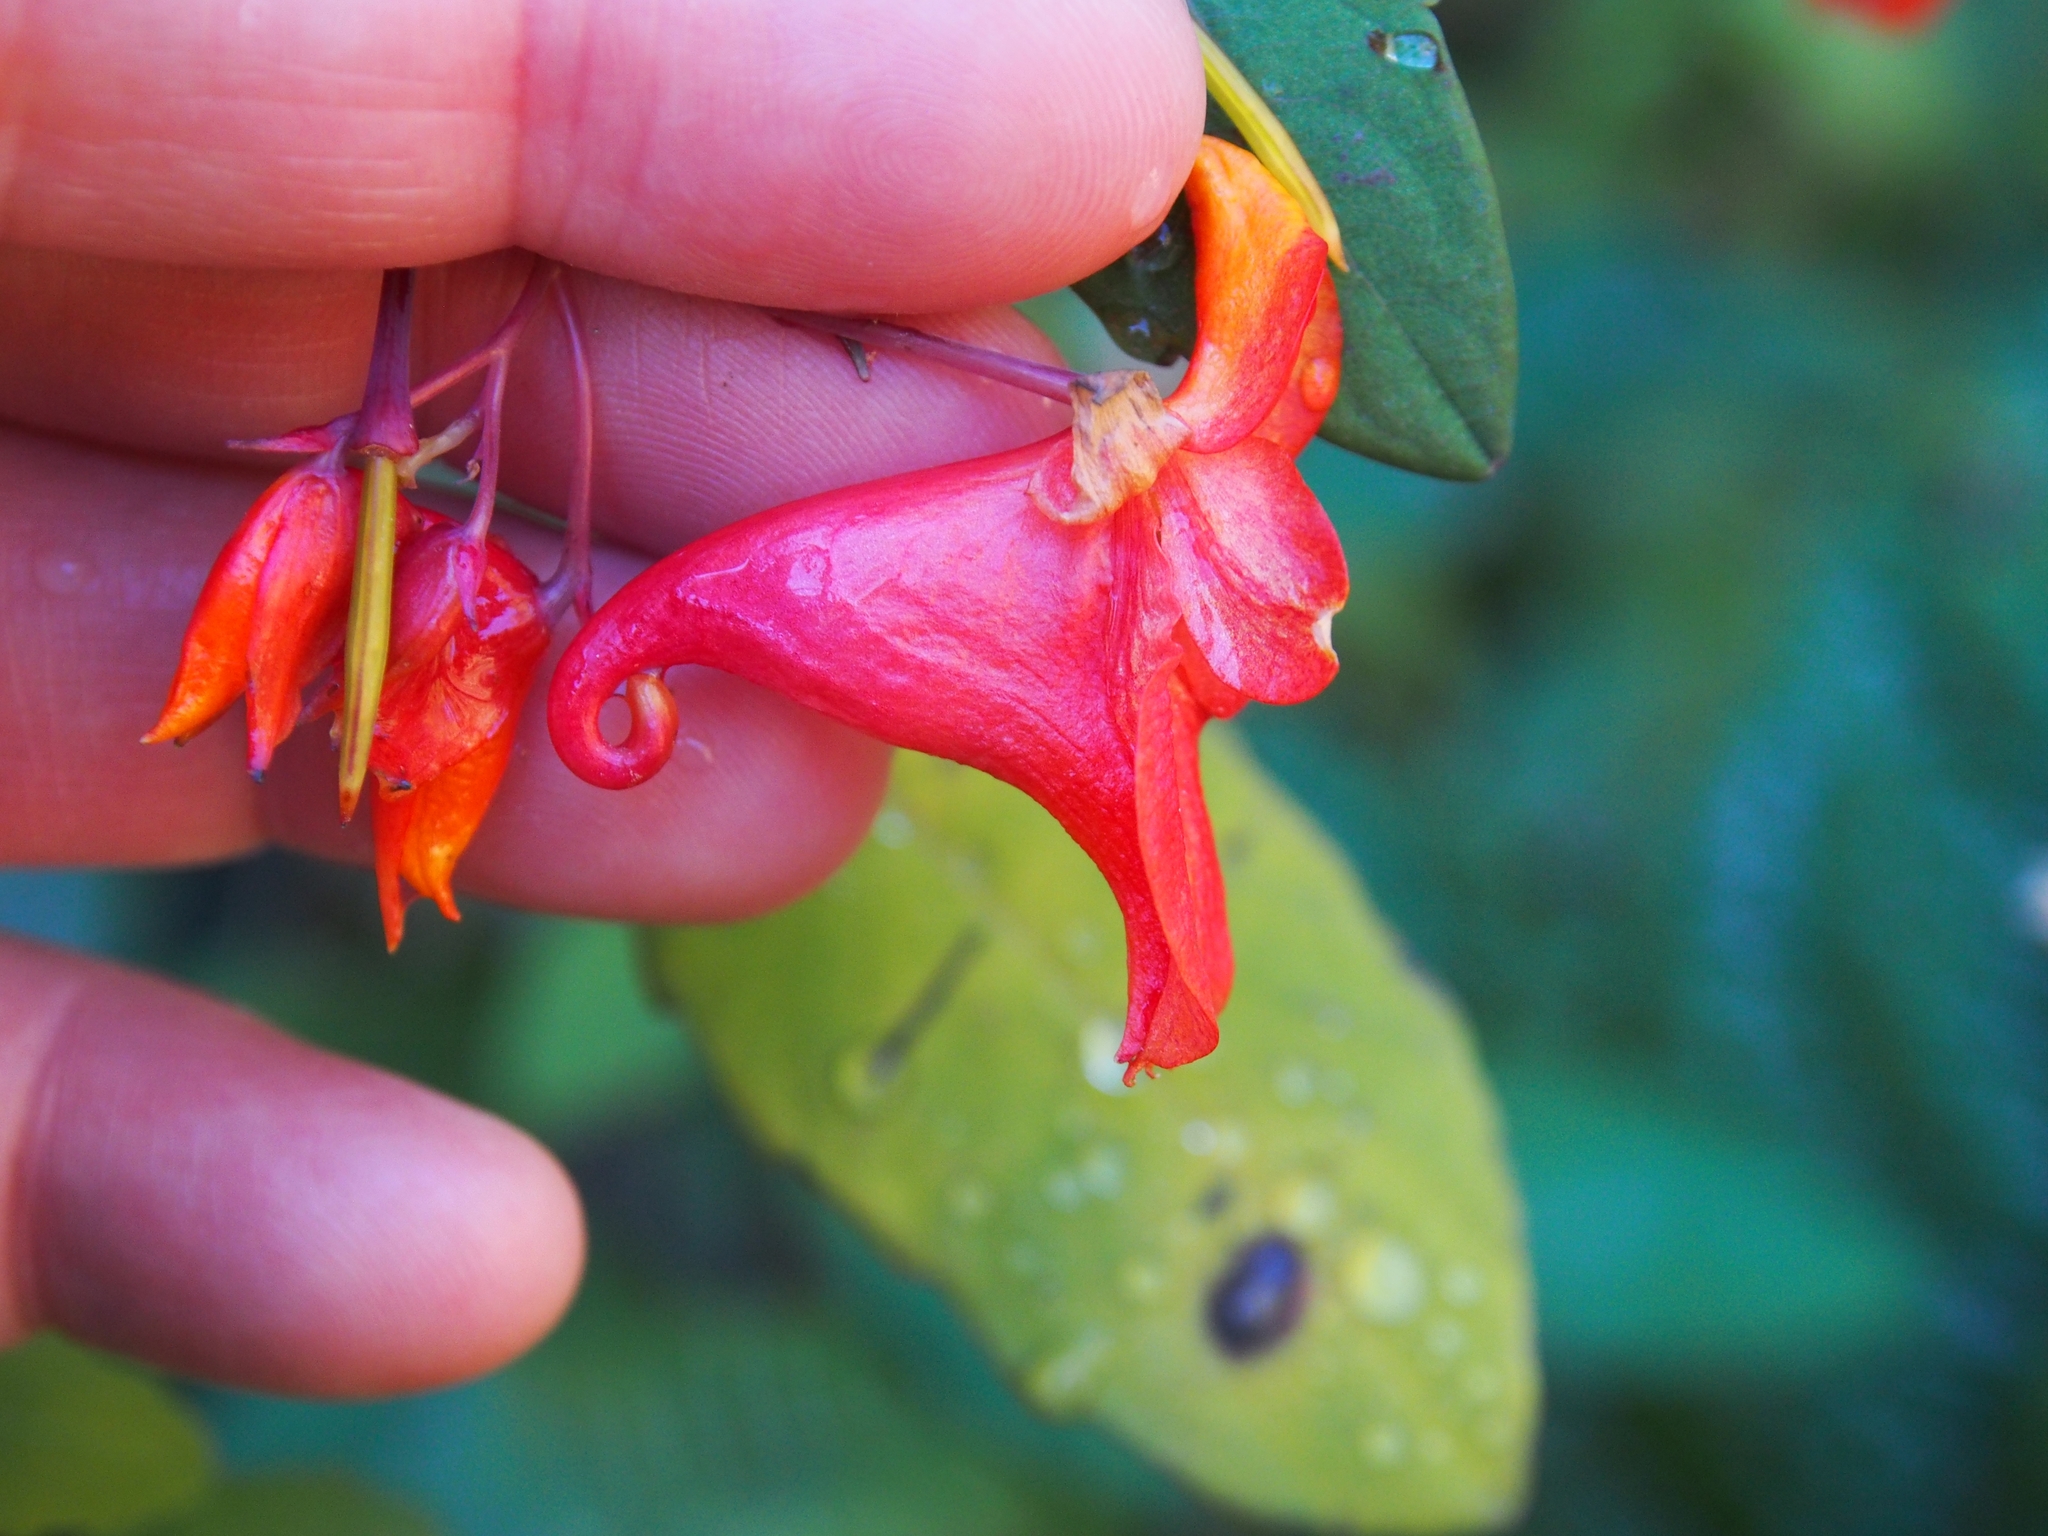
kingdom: Plantae
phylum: Tracheophyta
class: Magnoliopsida
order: Ericales
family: Balsaminaceae
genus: Impatiens
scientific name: Impatiens turrialbana
